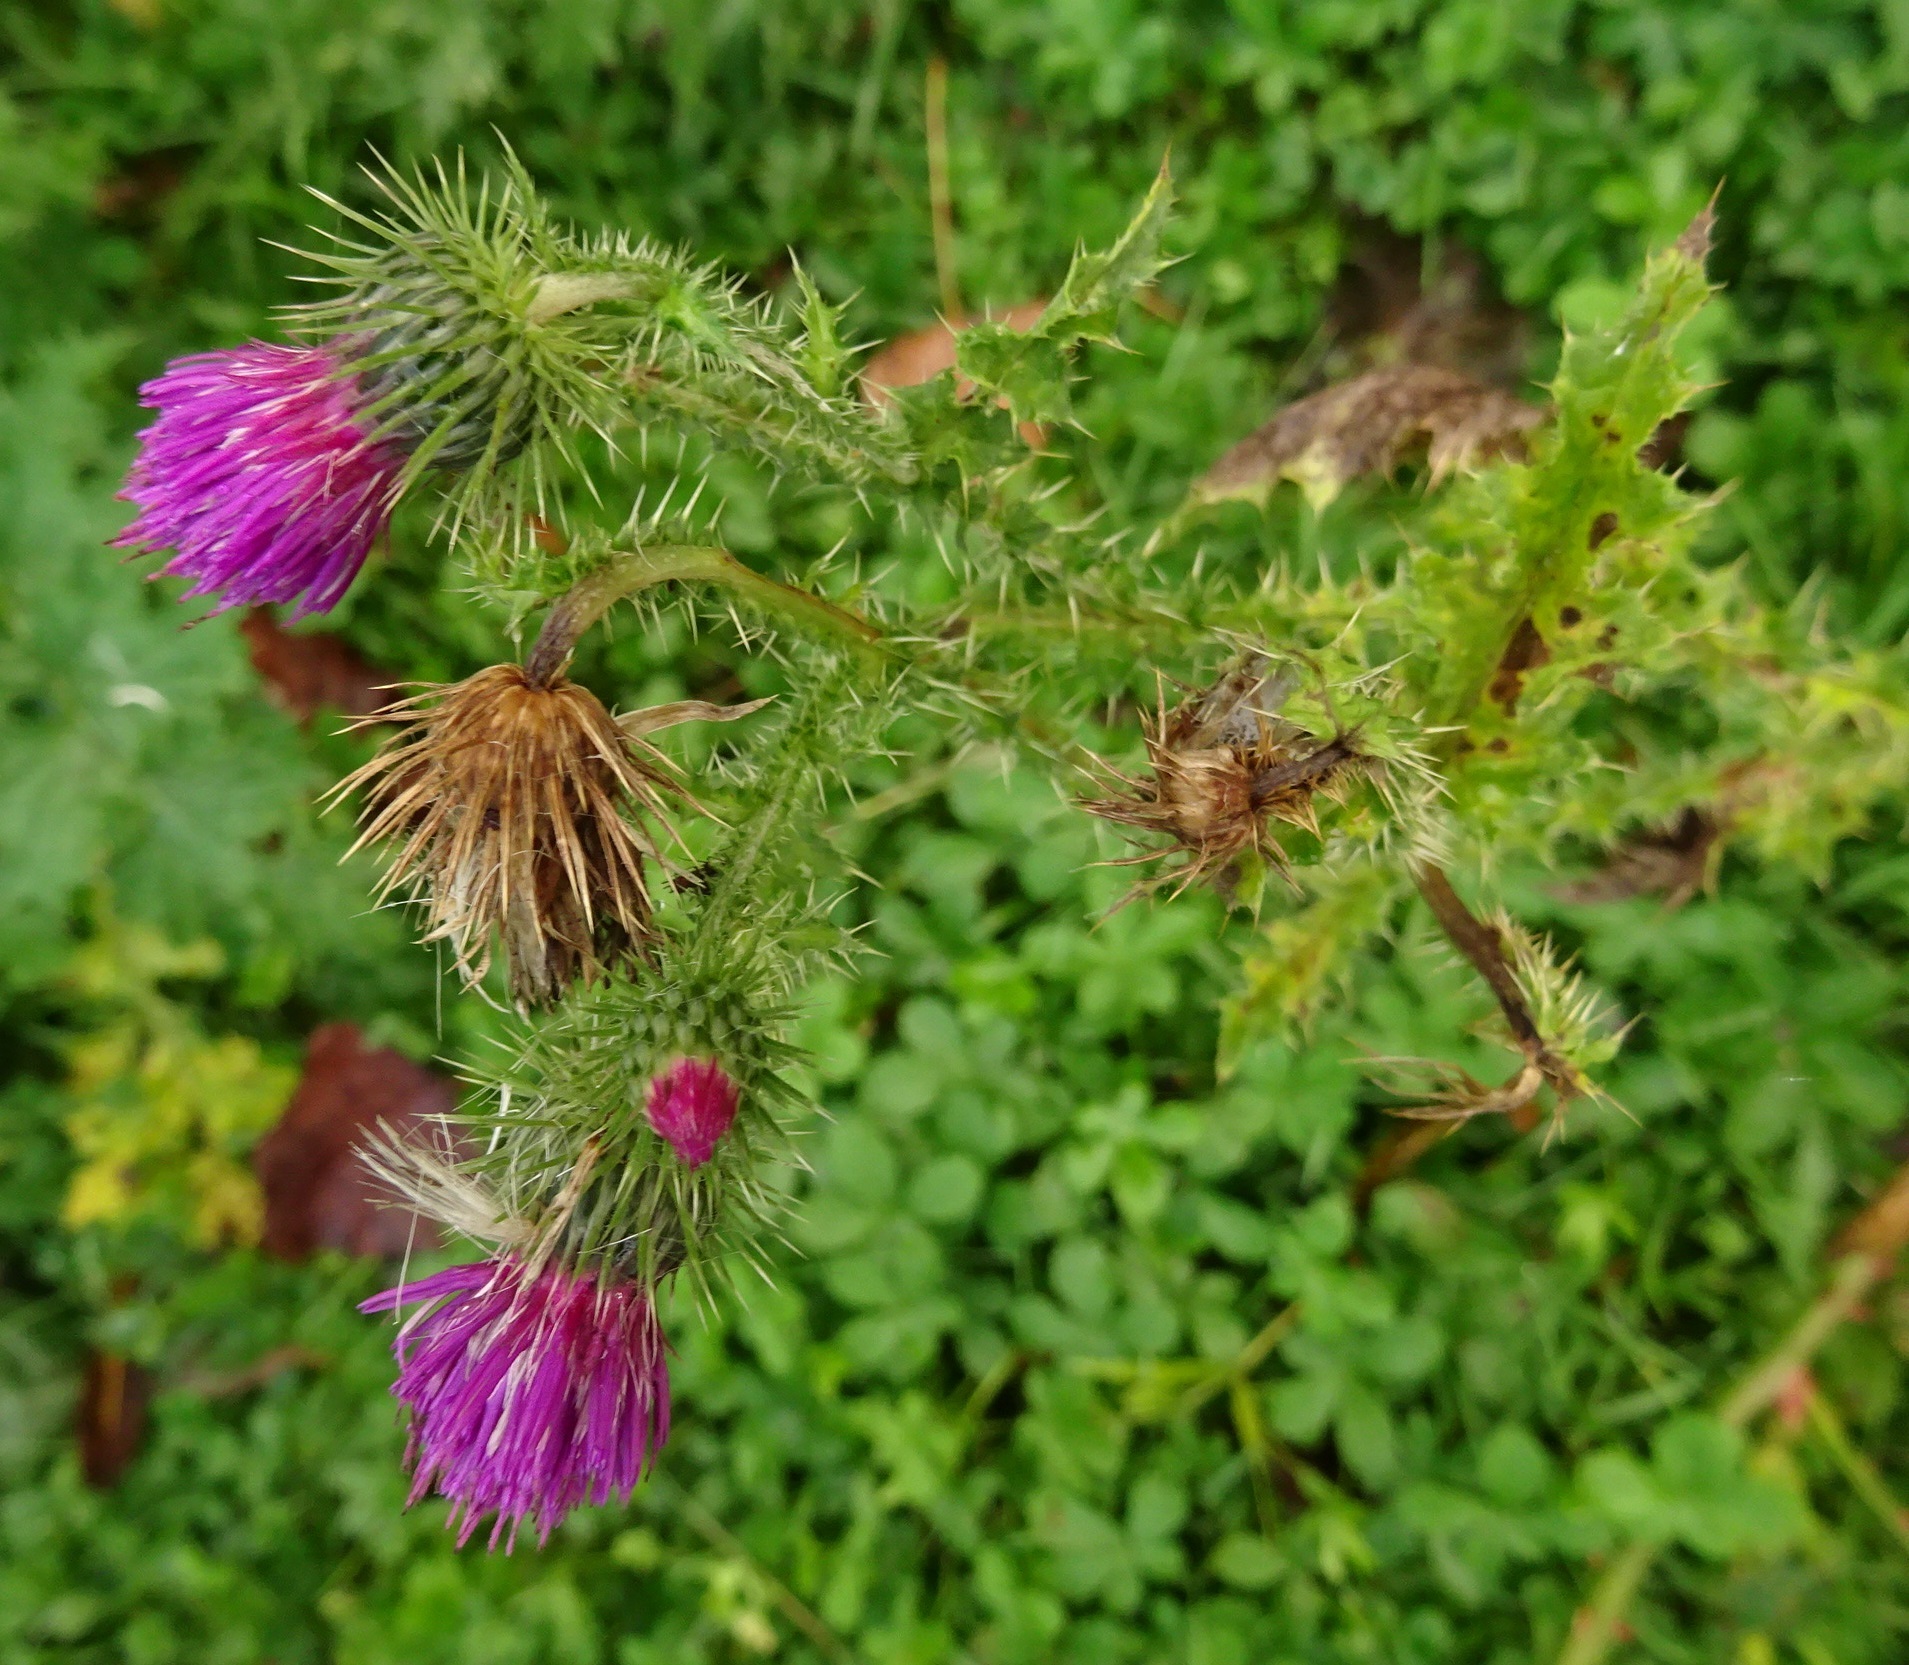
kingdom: Plantae
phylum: Tracheophyta
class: Magnoliopsida
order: Asterales
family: Asteraceae
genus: Carduus
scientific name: Carduus crispus
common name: Welted thistle
